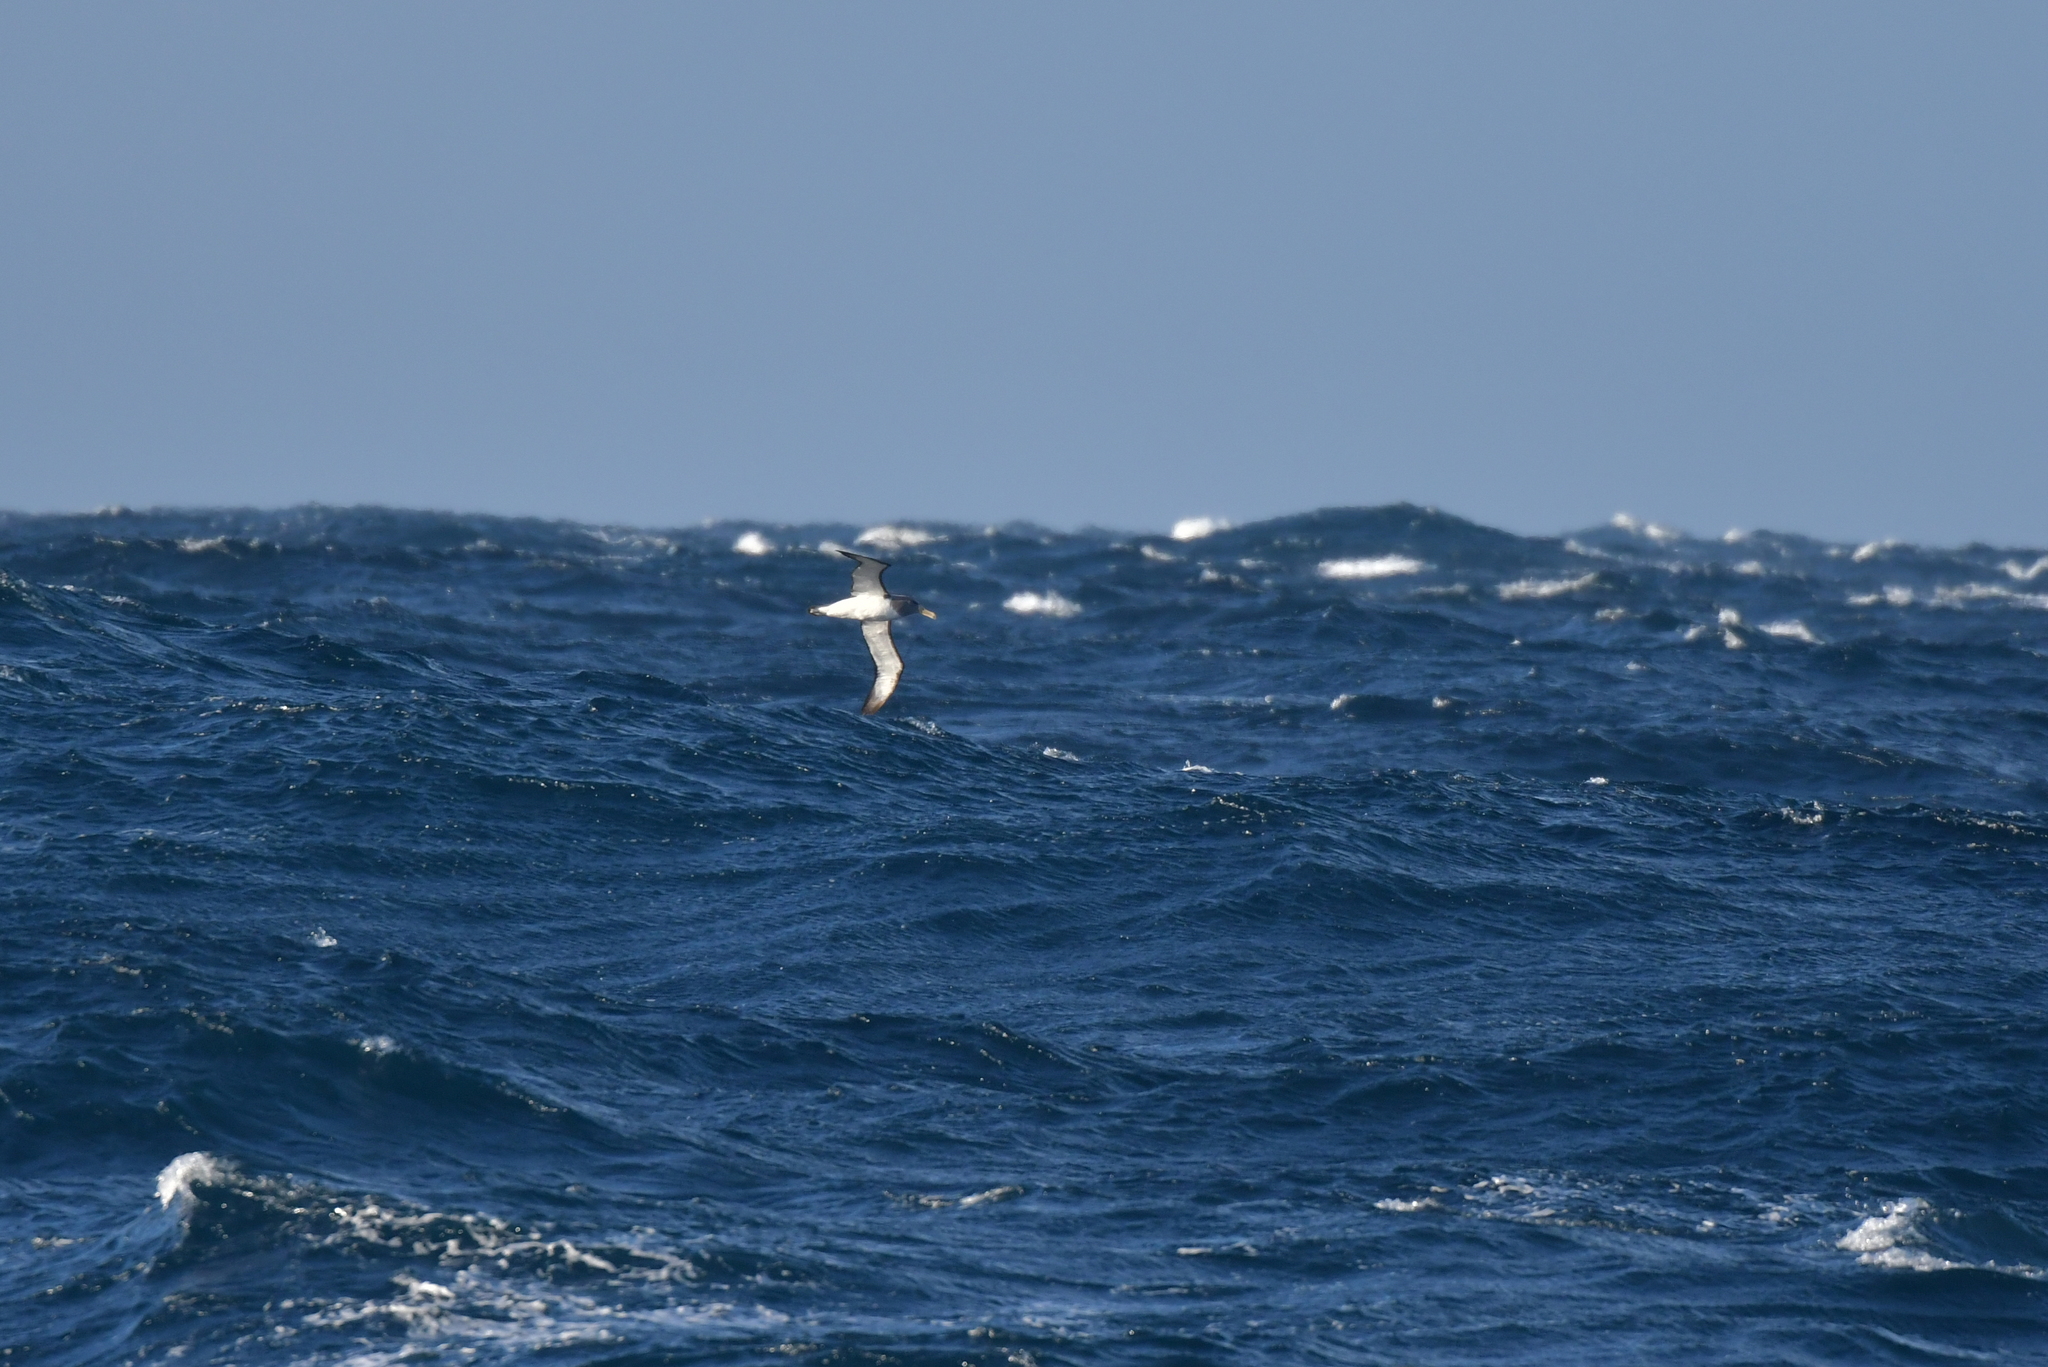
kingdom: Animalia
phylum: Chordata
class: Aves
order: Procellariiformes
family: Diomedeidae
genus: Thalassarche
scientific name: Thalassarche eremita
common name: Chatham albatross
